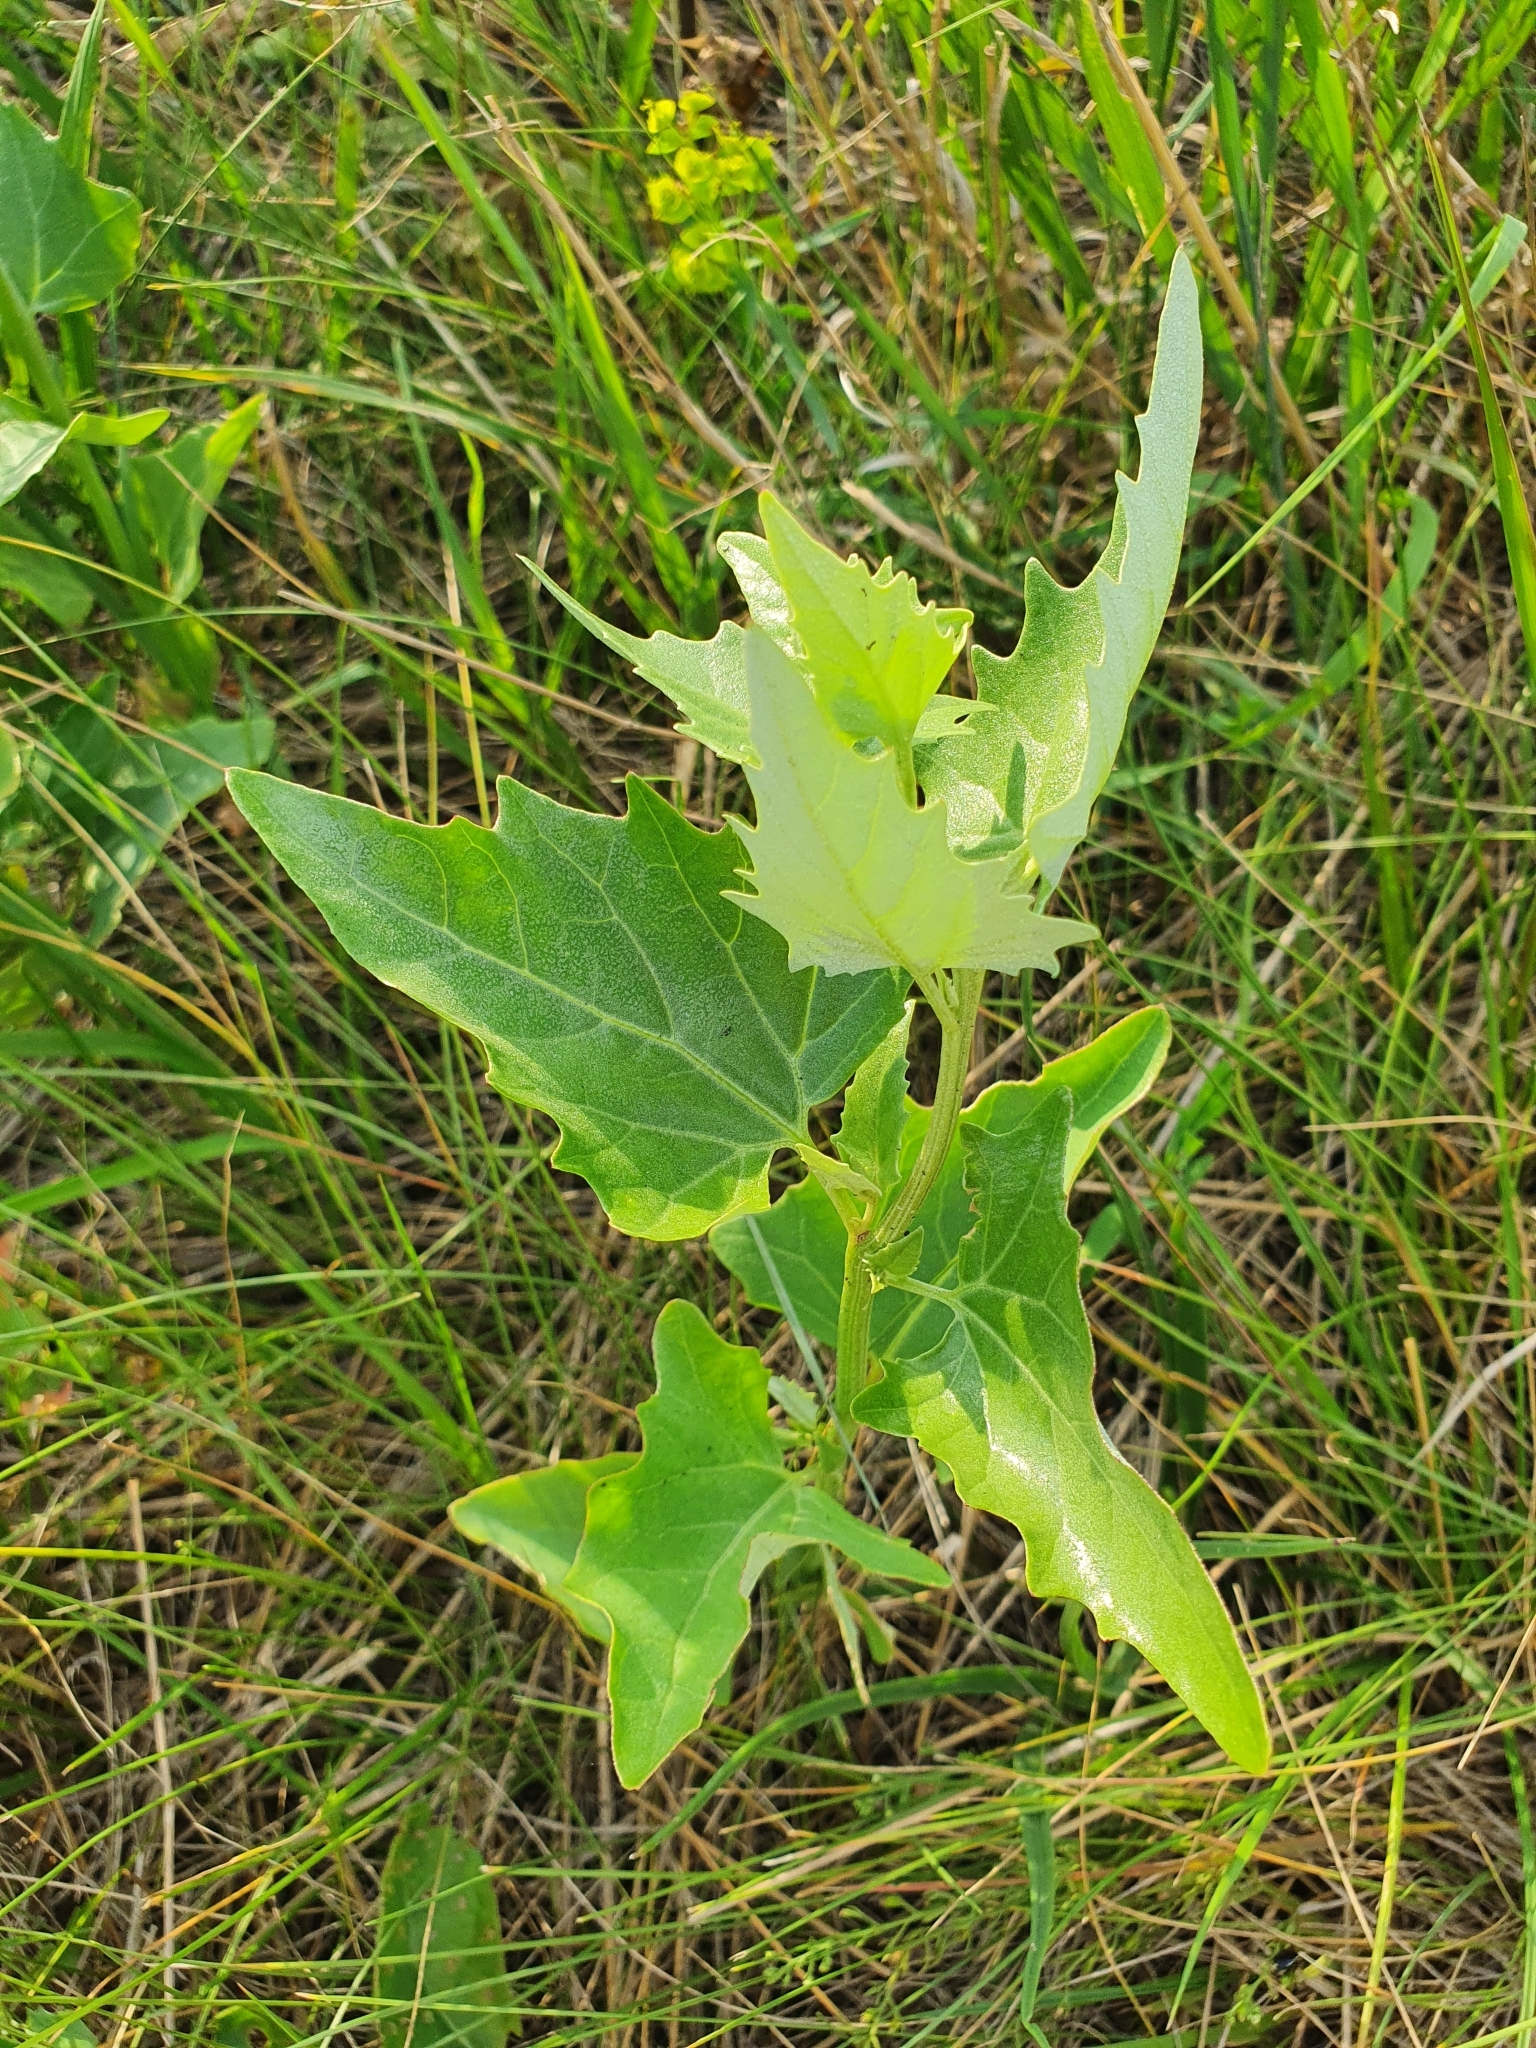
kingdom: Plantae
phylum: Tracheophyta
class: Magnoliopsida
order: Caryophyllales
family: Amaranthaceae
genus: Atriplex
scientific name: Atriplex sagittata
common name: Purple orache
